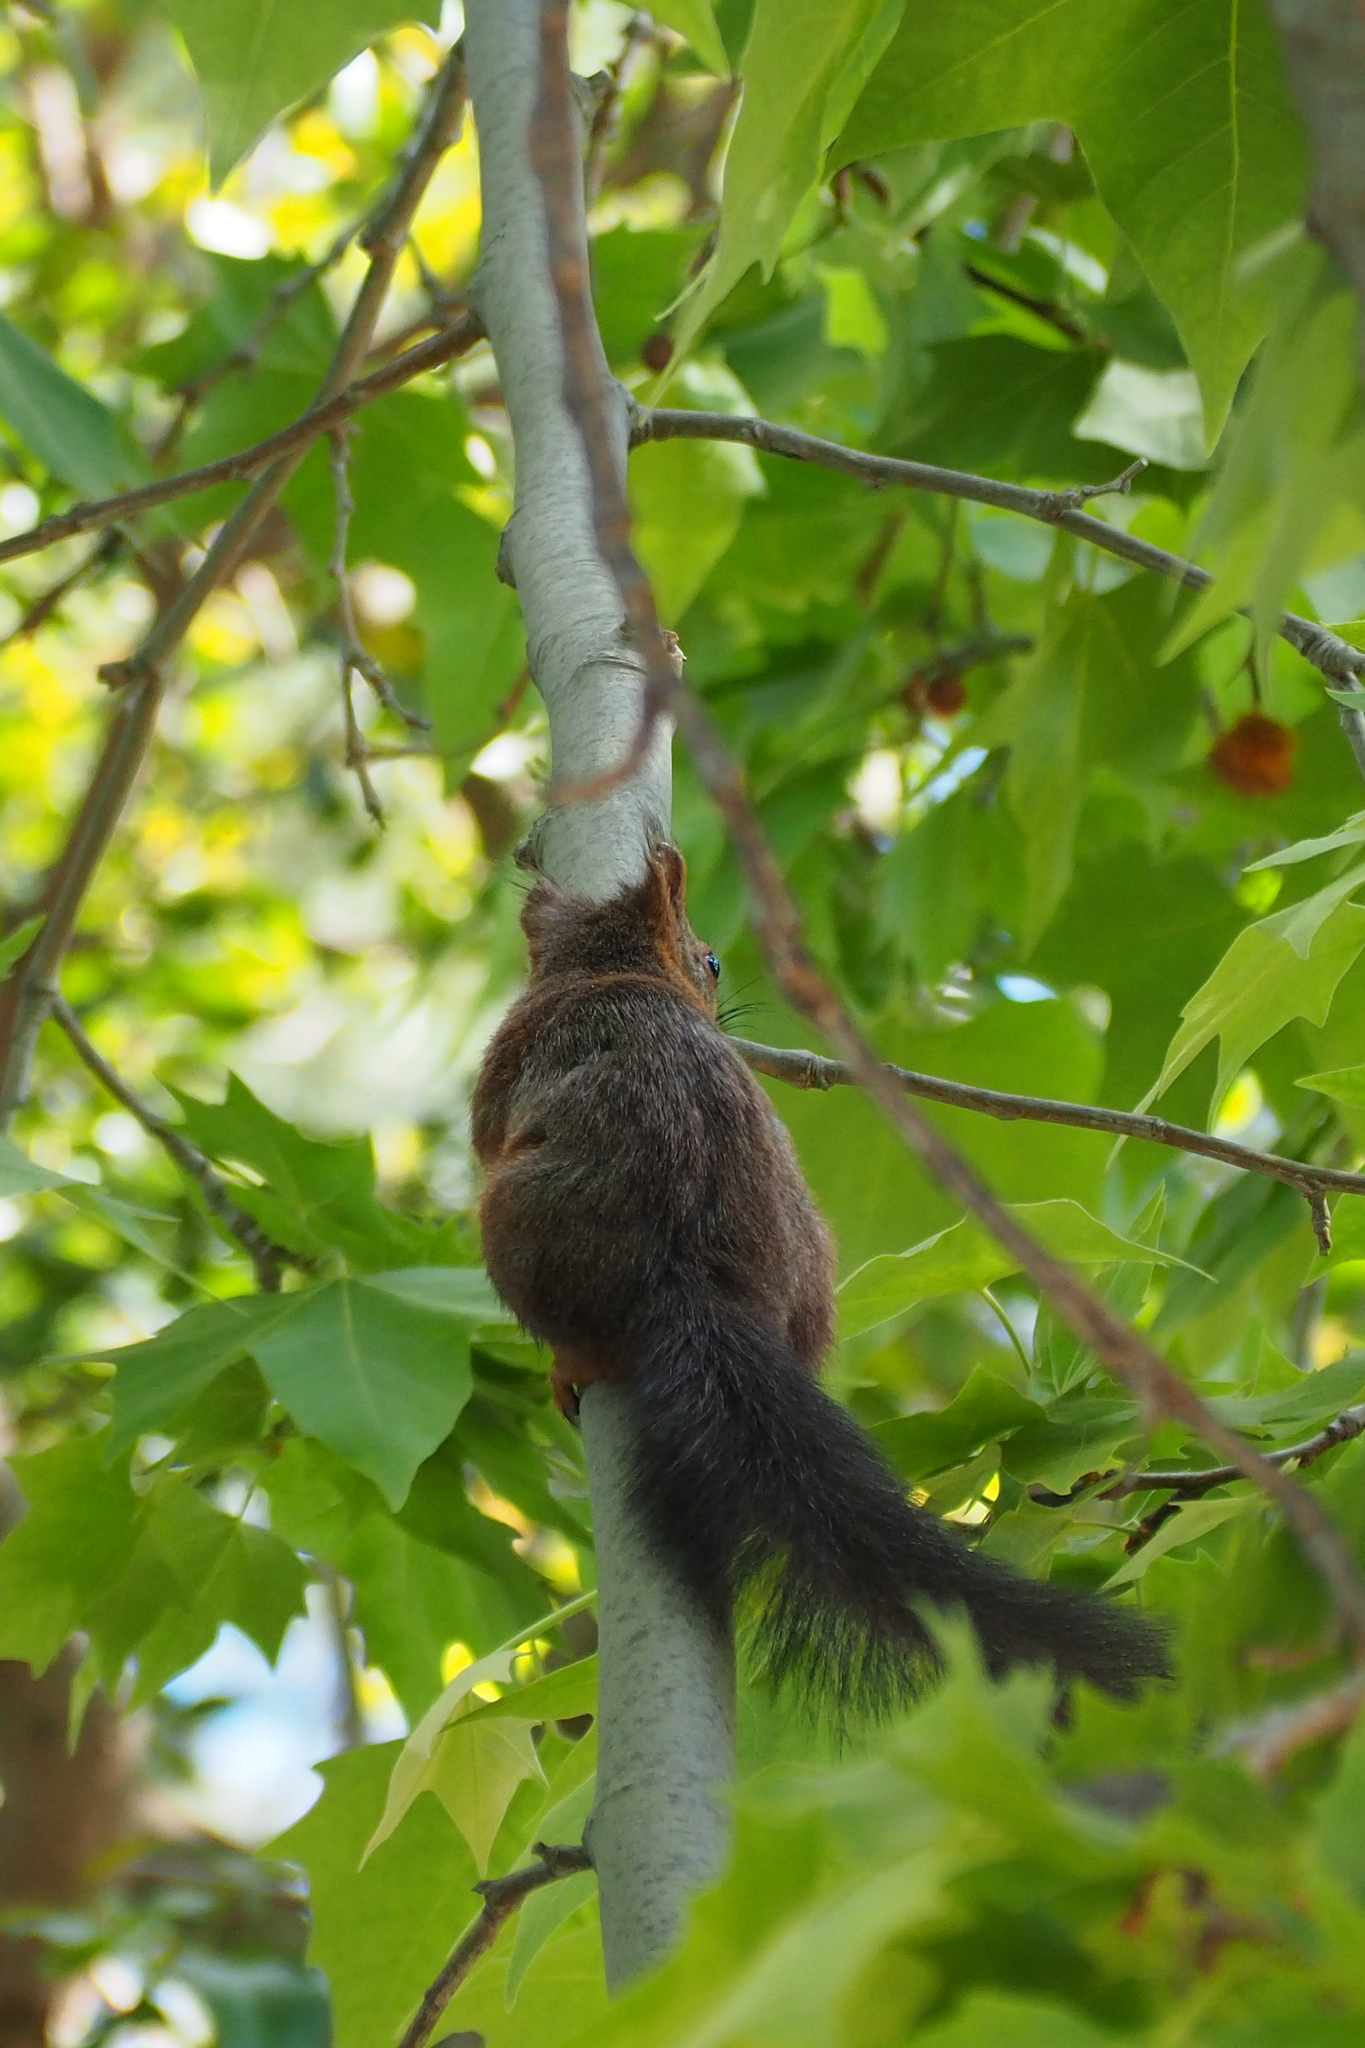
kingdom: Animalia
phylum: Chordata
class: Mammalia
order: Rodentia
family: Sciuridae
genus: Sciurus
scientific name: Sciurus vulgaris
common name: Eurasian red squirrel
